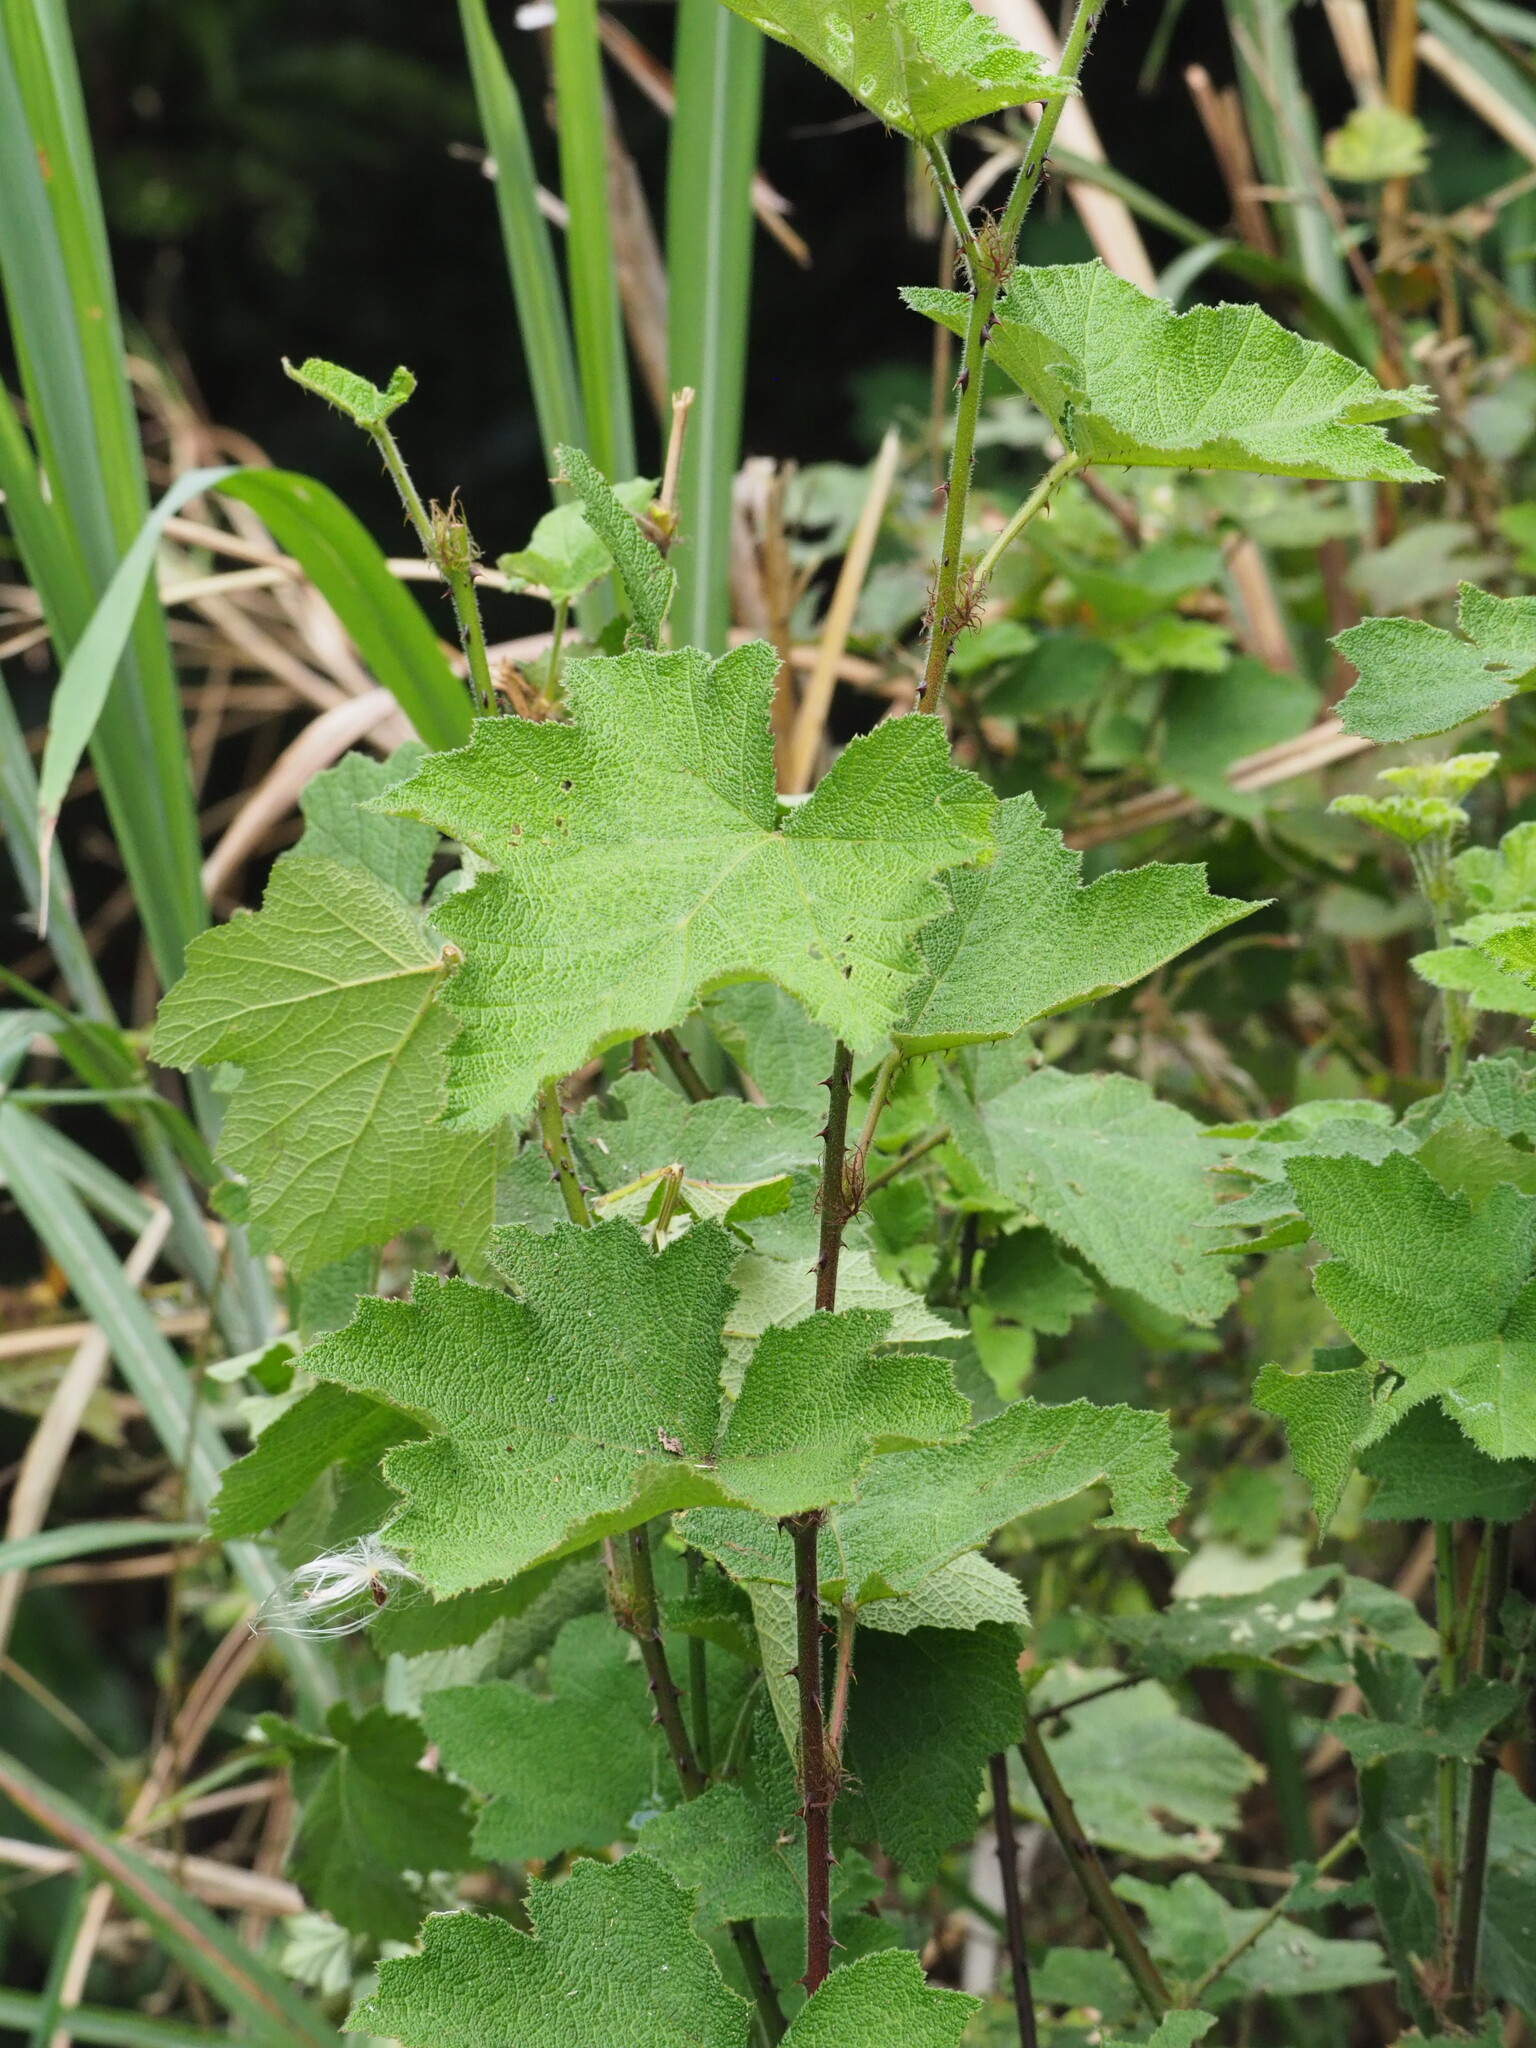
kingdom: Plantae
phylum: Tracheophyta
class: Magnoliopsida
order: Rosales
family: Rosaceae
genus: Rubus
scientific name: Rubus alceifolius
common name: Giant bramble
